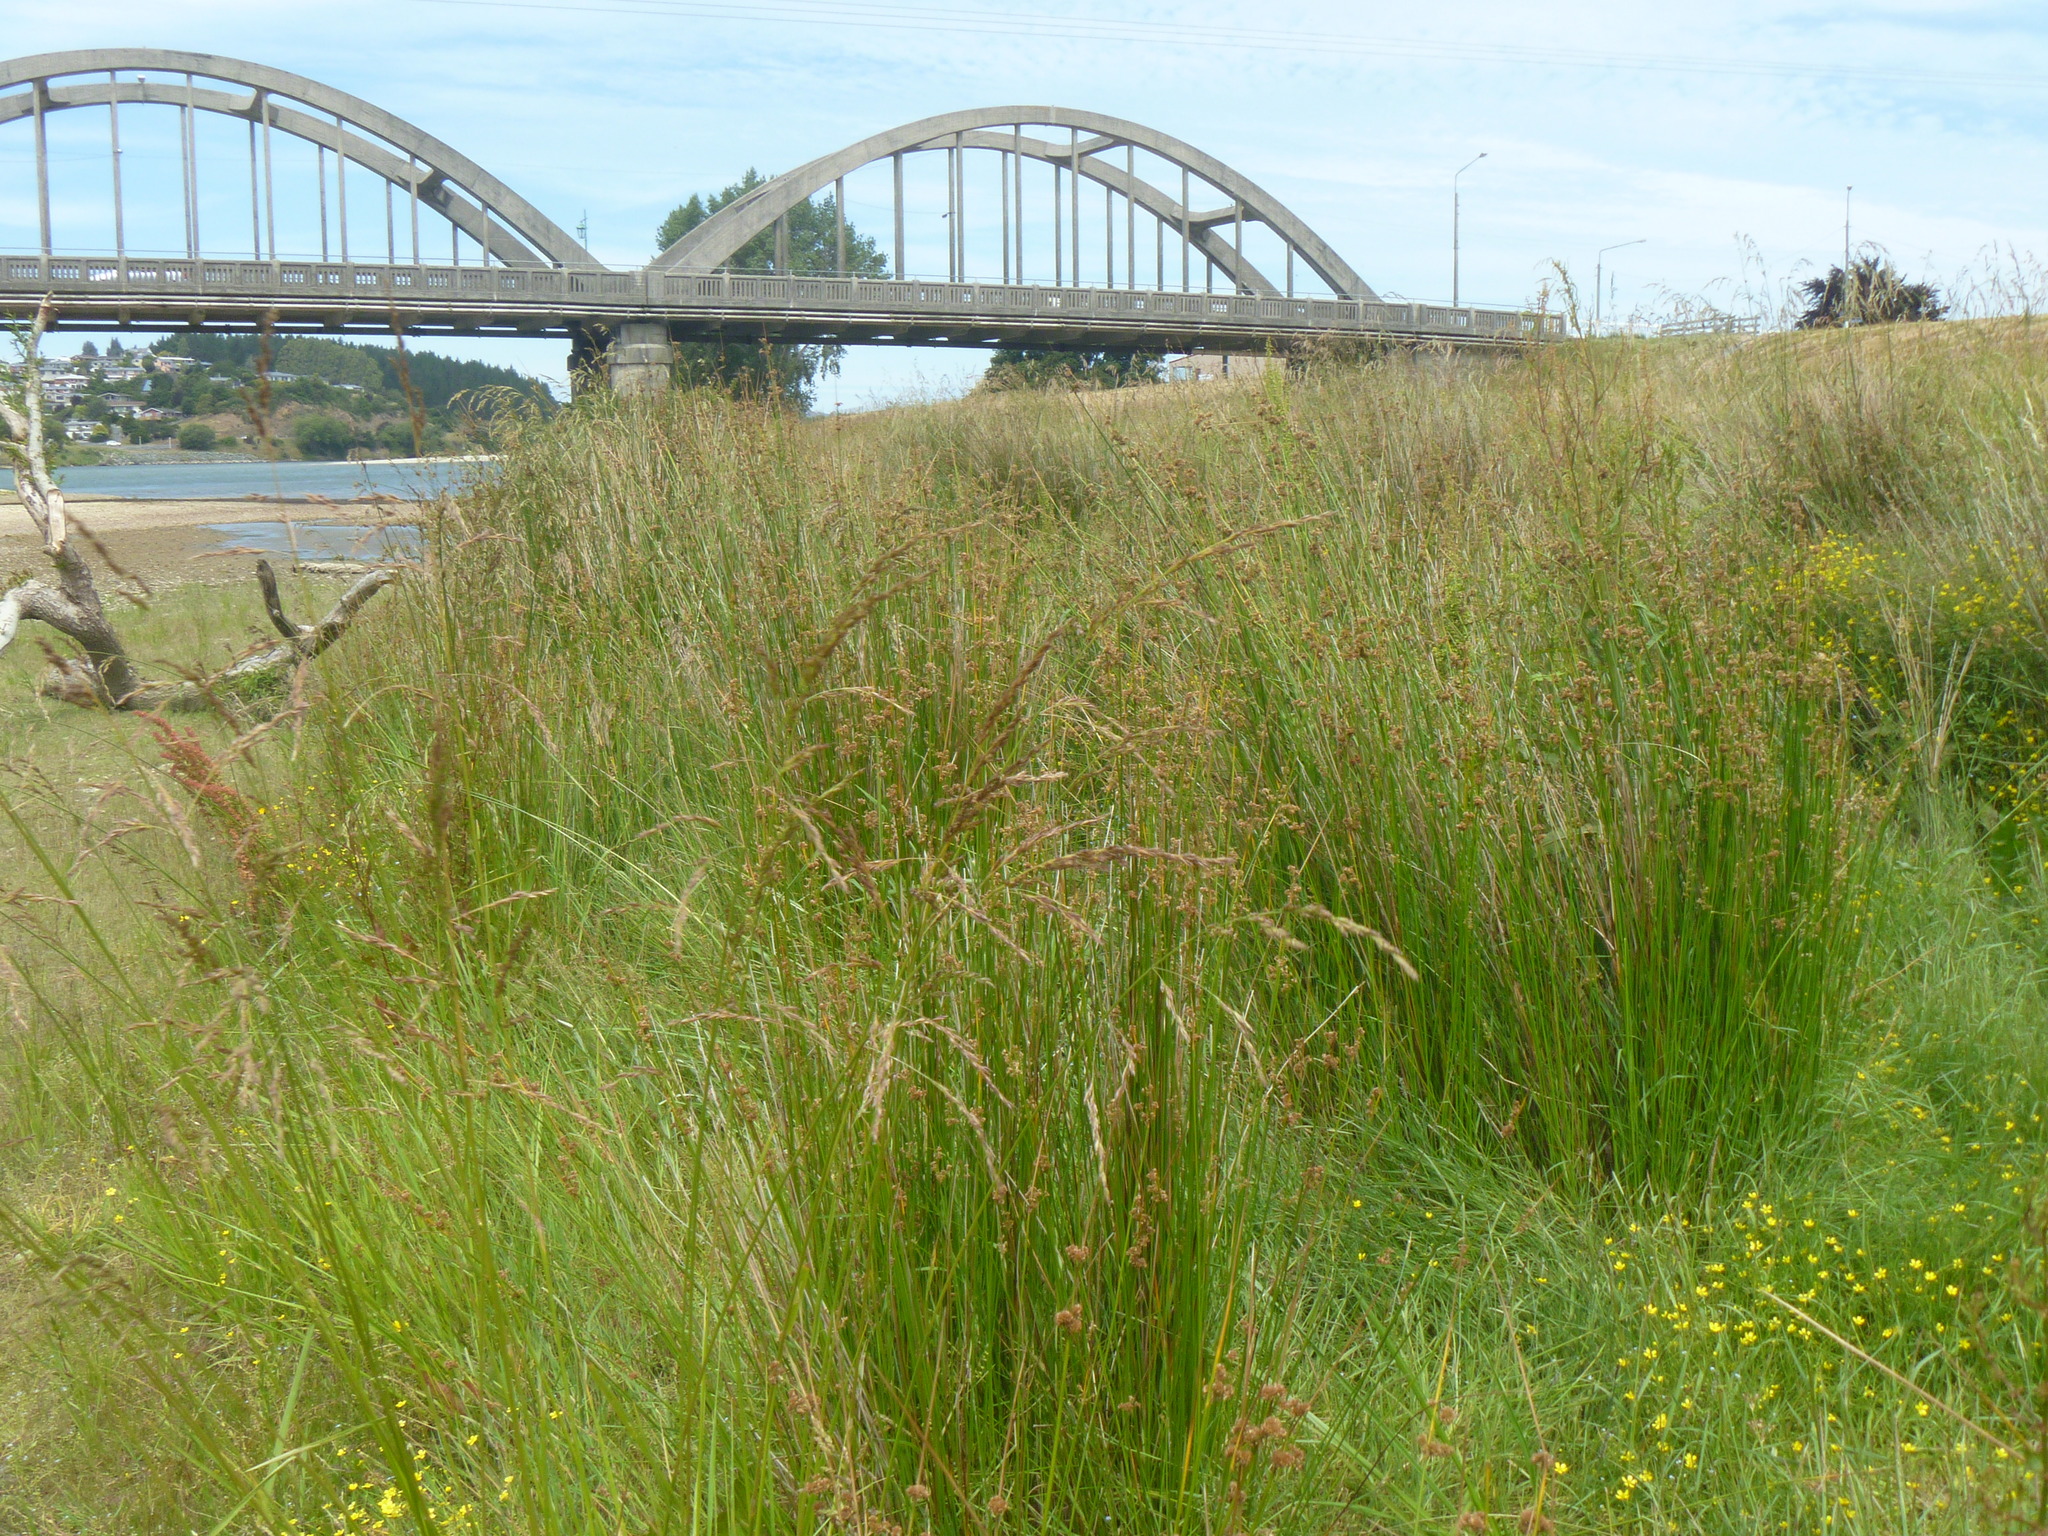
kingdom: Plantae
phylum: Tracheophyta
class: Liliopsida
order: Poales
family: Juncaceae
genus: Juncus
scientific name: Juncus edgariae
